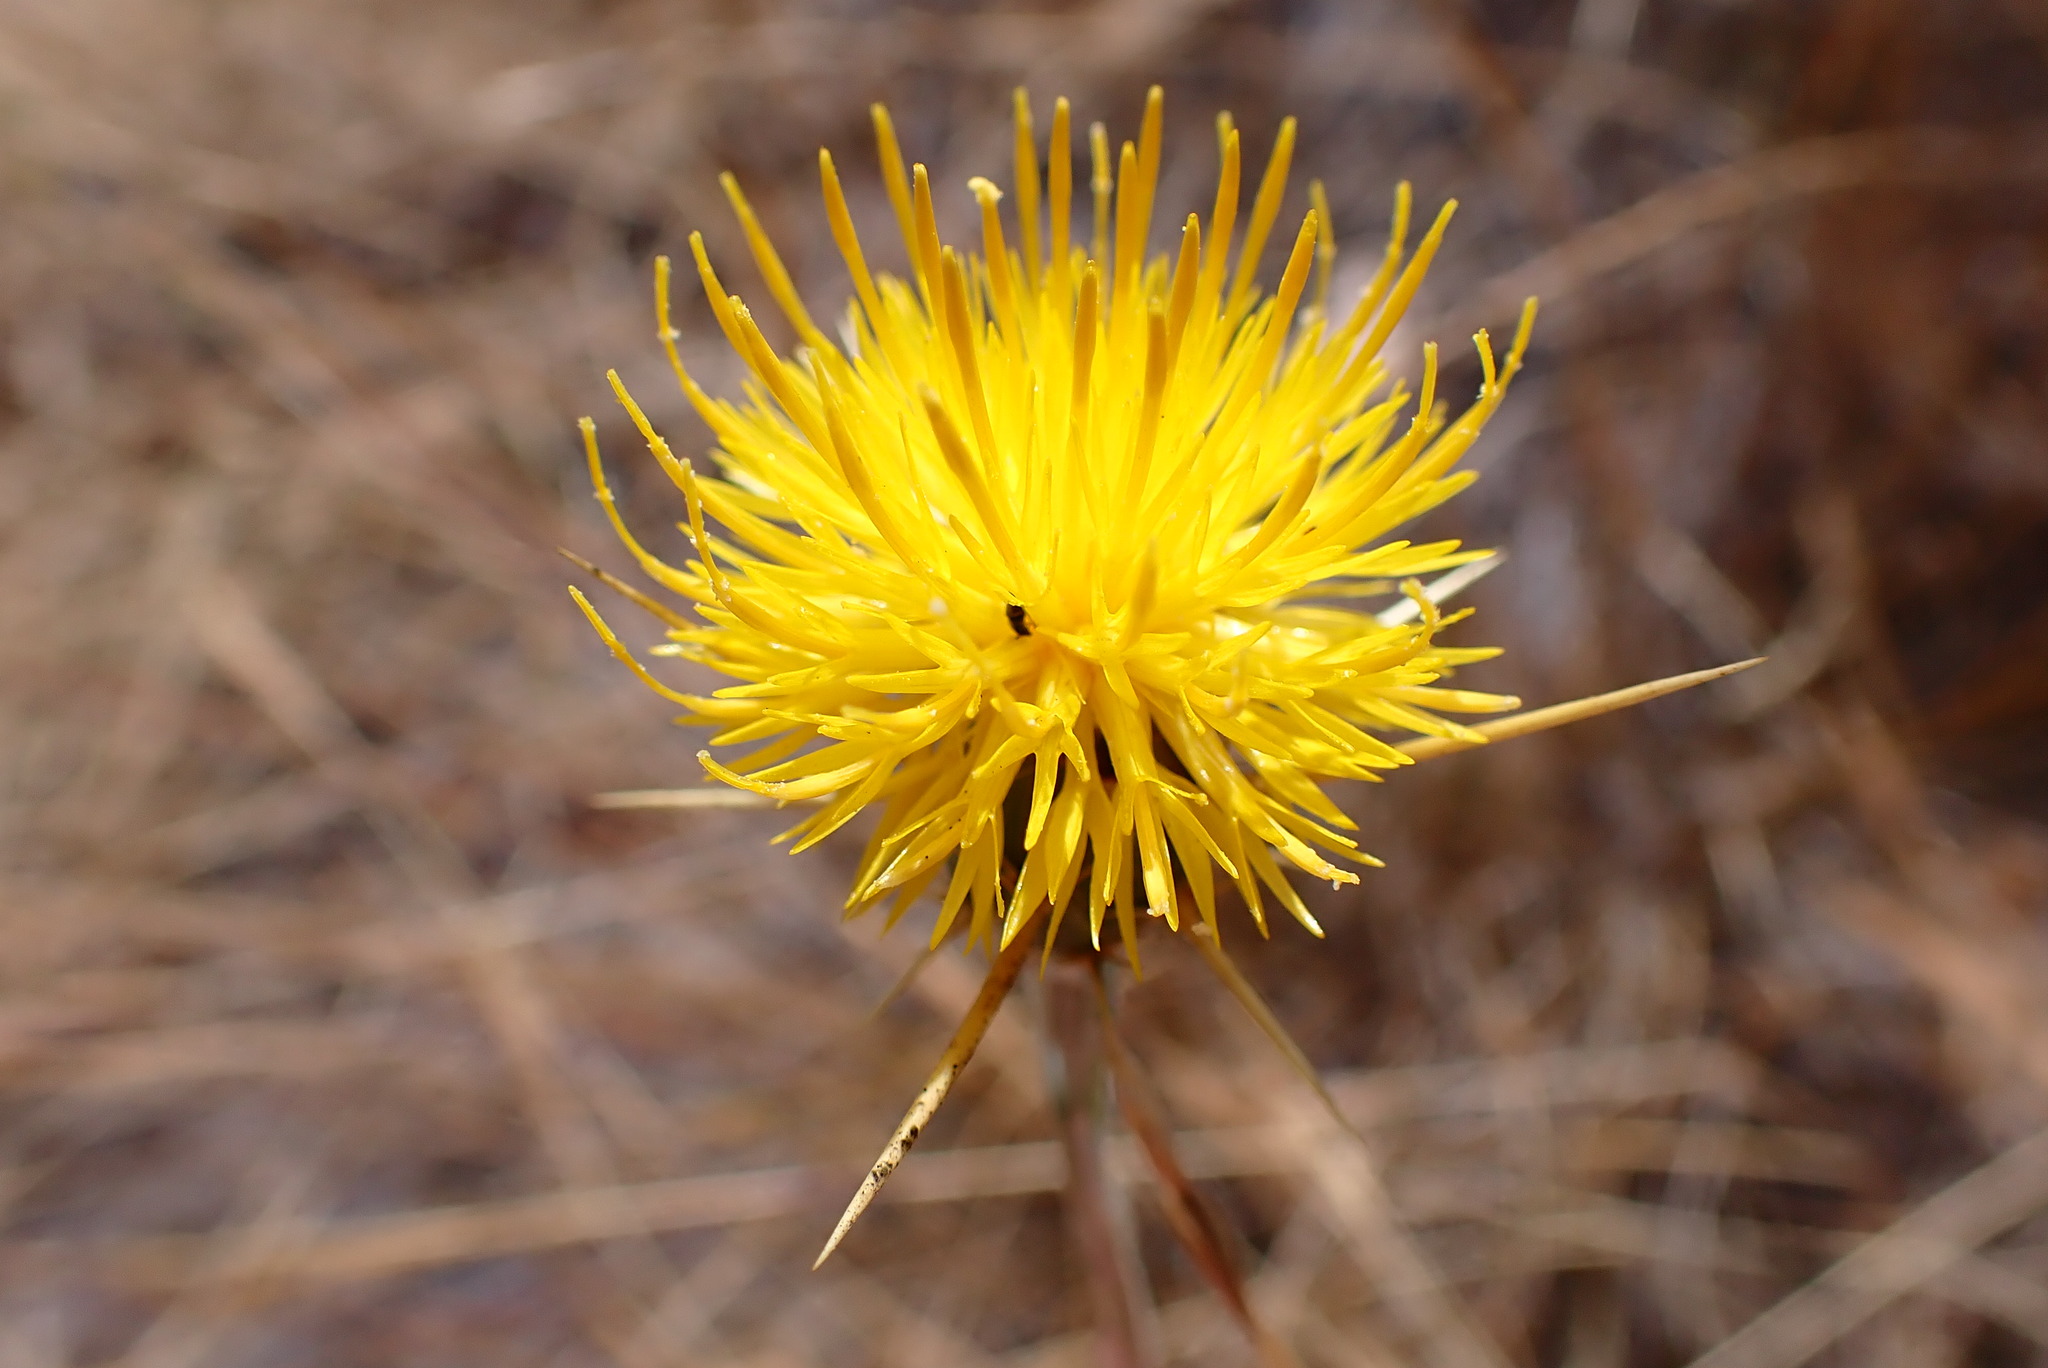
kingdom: Plantae
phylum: Tracheophyta
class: Magnoliopsida
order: Asterales
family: Asteraceae
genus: Centaurea
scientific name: Centaurea solstitialis
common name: Yellow star-thistle
